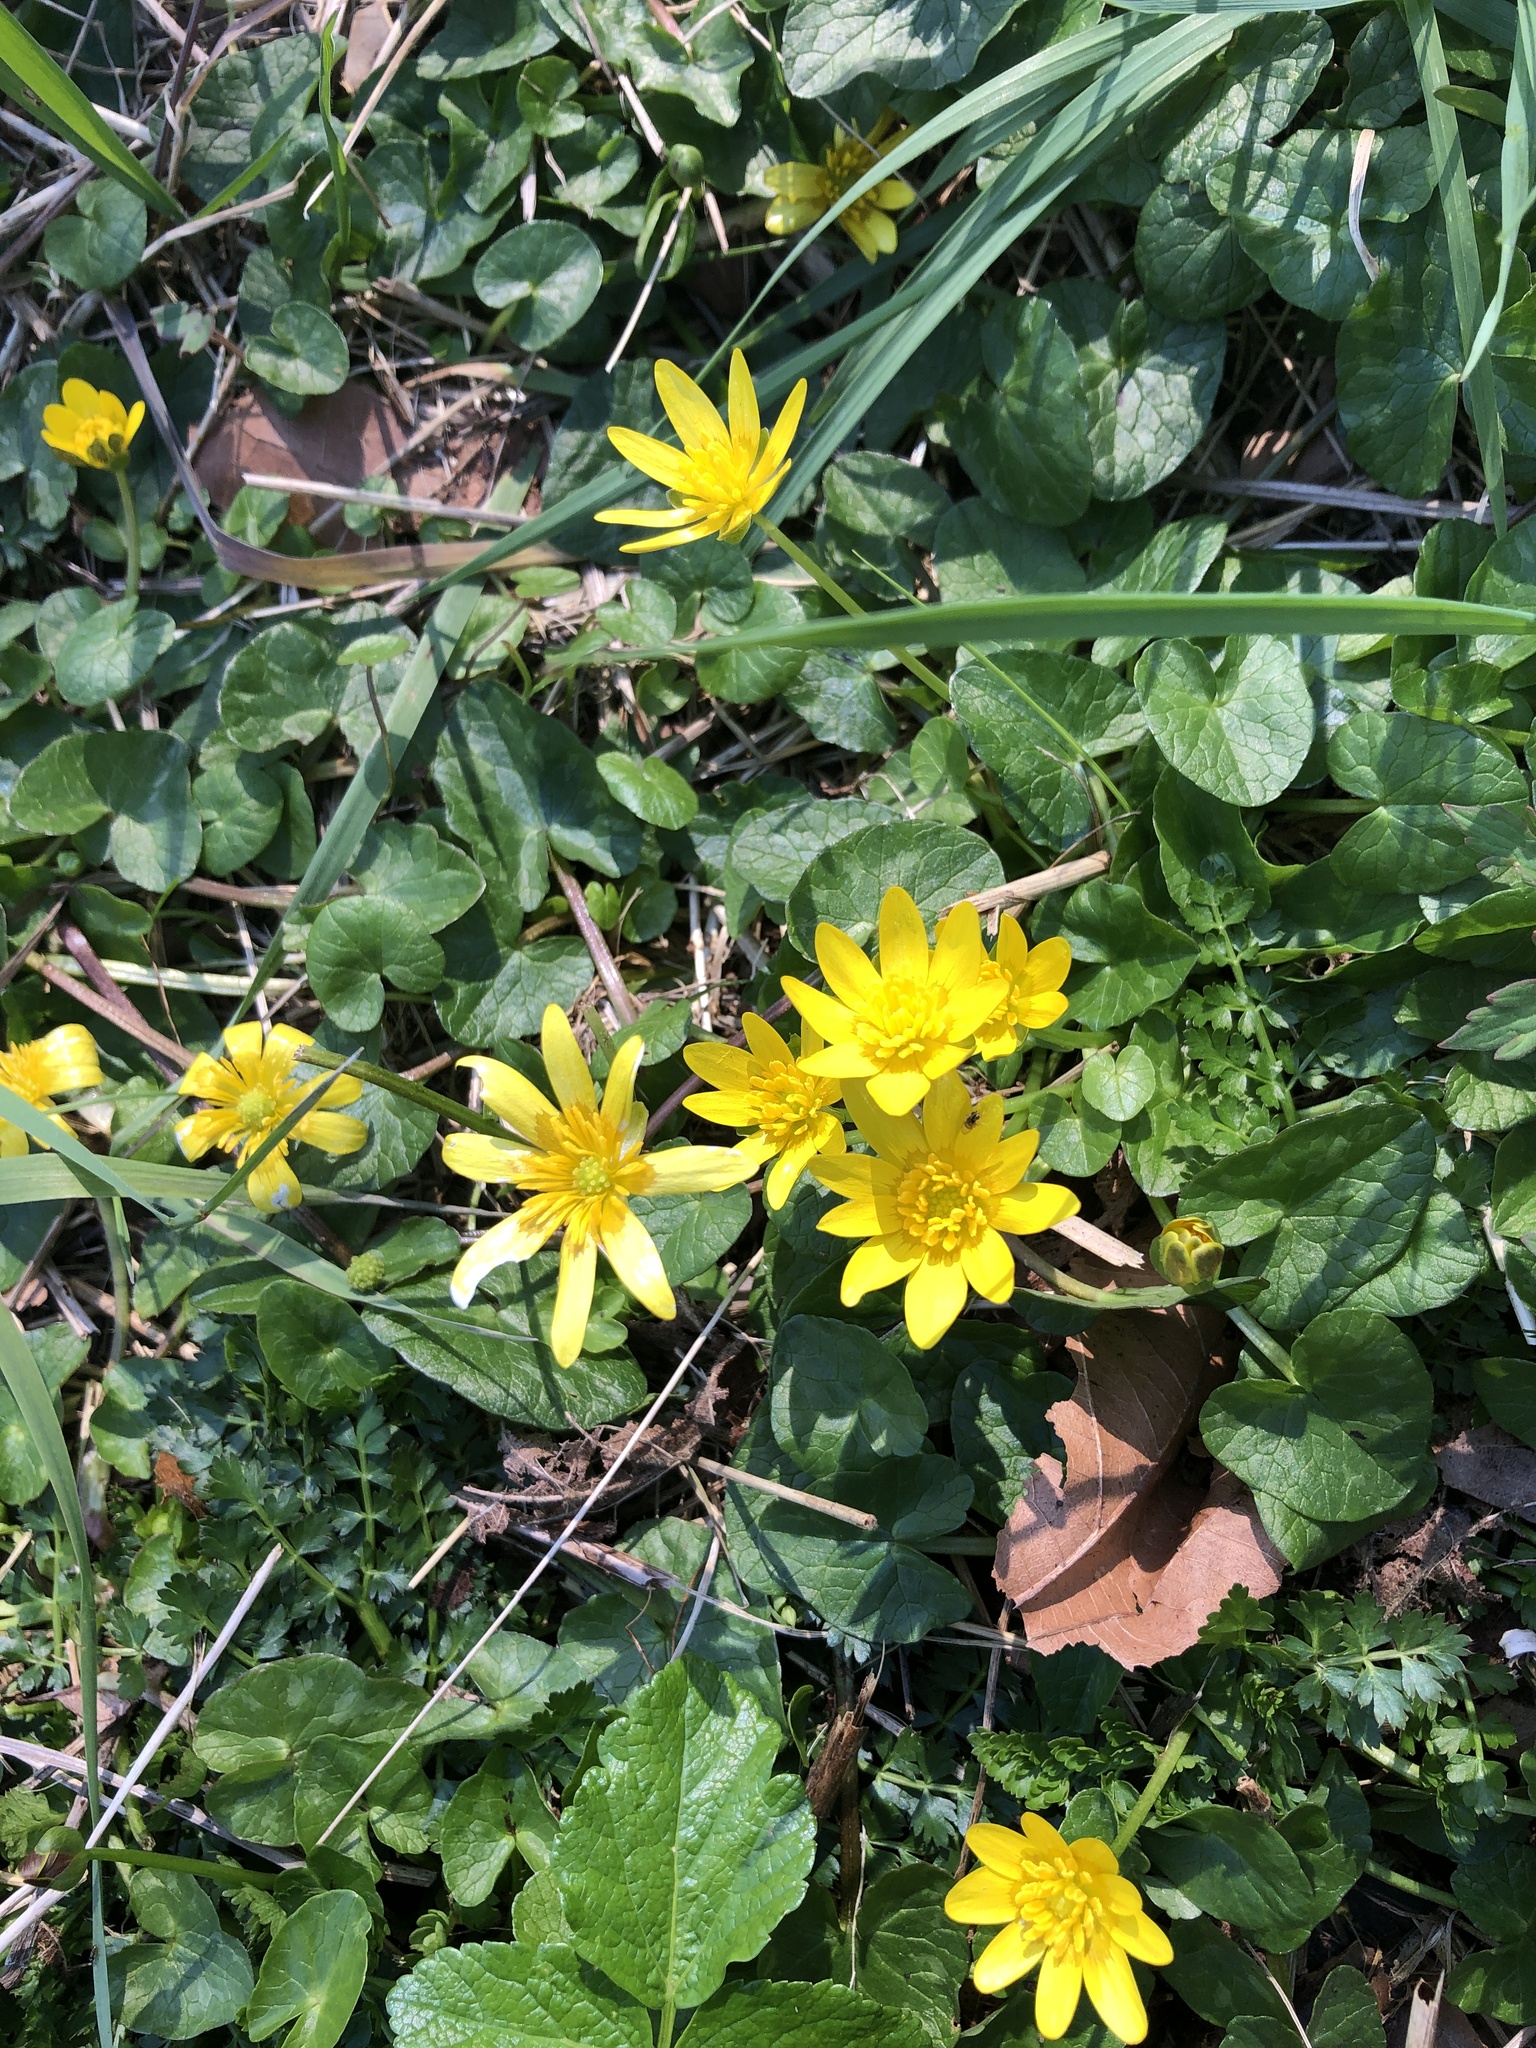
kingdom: Plantae
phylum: Tracheophyta
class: Magnoliopsida
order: Ranunculales
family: Ranunculaceae
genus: Ficaria
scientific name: Ficaria verna
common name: Lesser celandine
